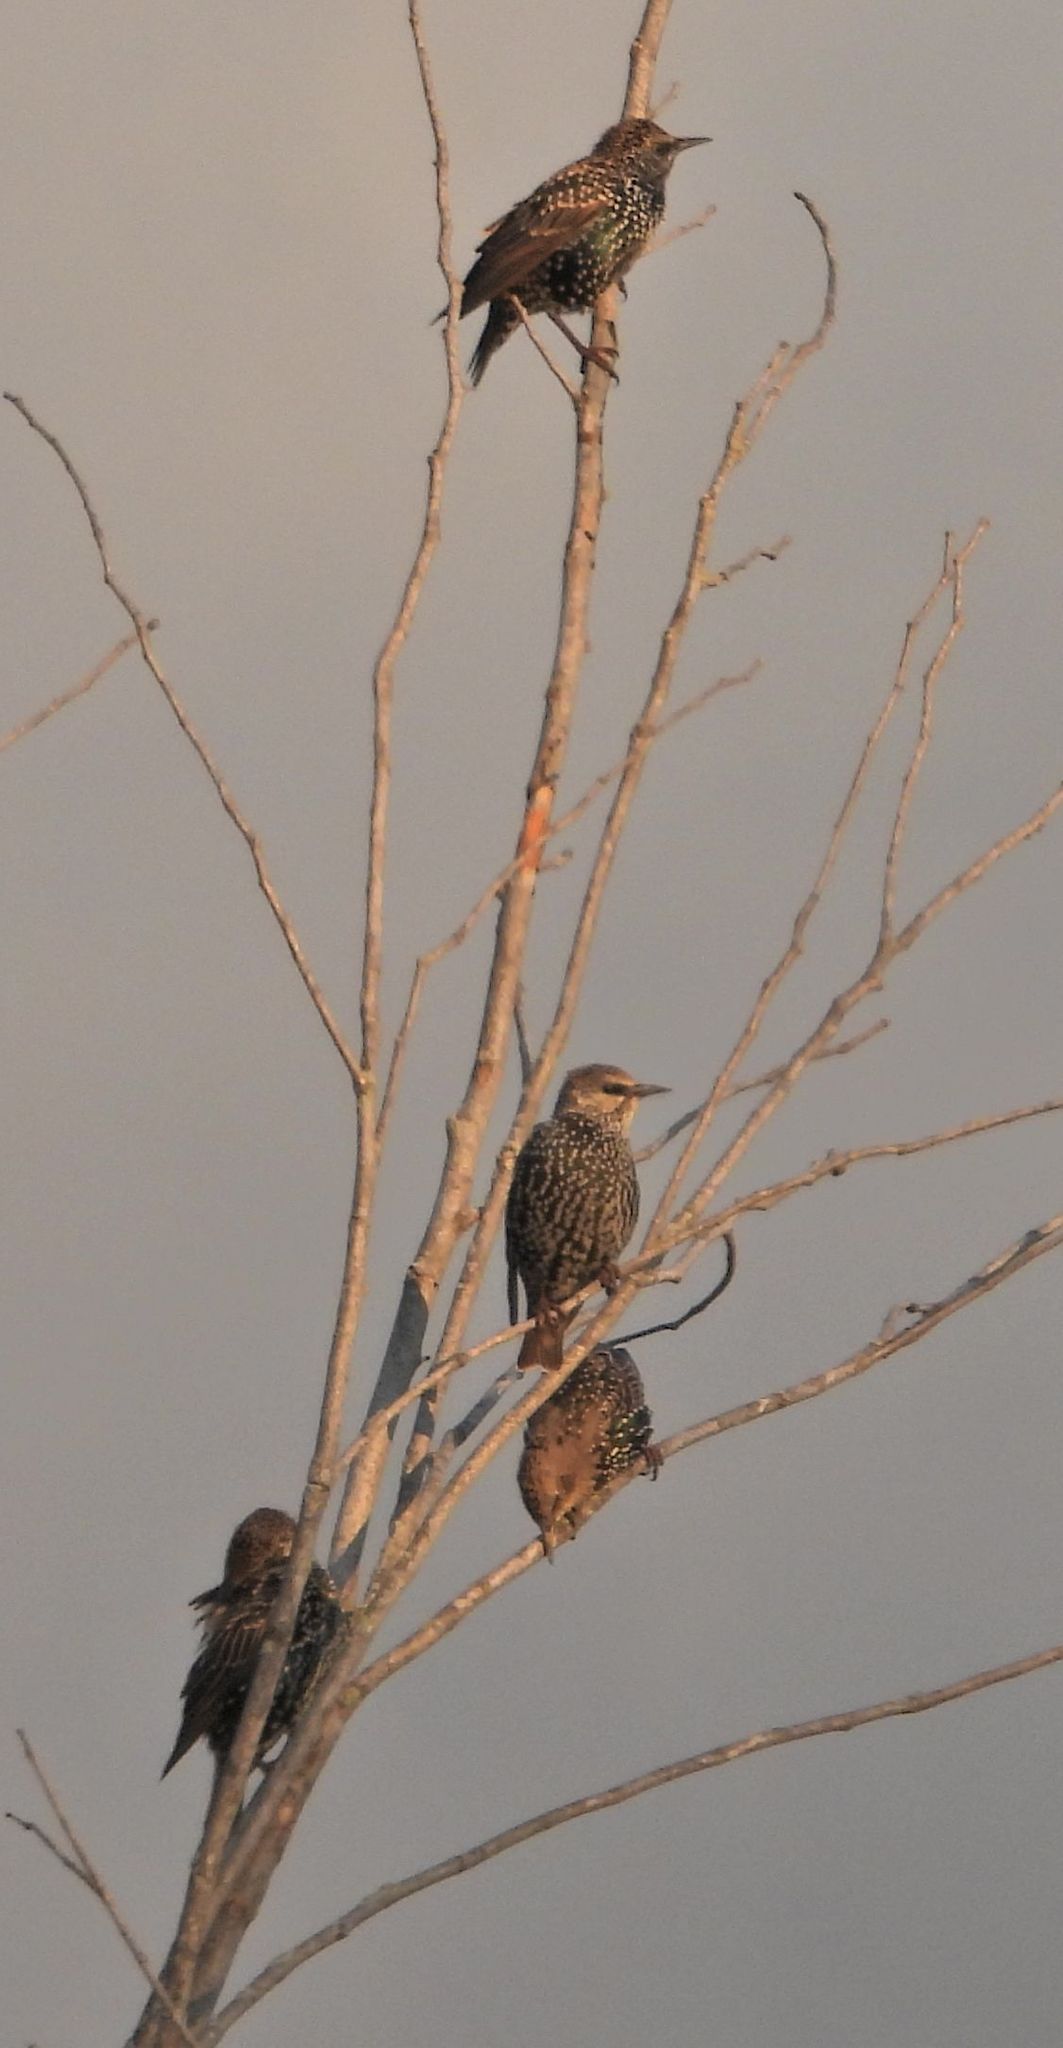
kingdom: Animalia
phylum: Chordata
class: Aves
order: Passeriformes
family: Sturnidae
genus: Sturnus
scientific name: Sturnus vulgaris
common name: Common starling
